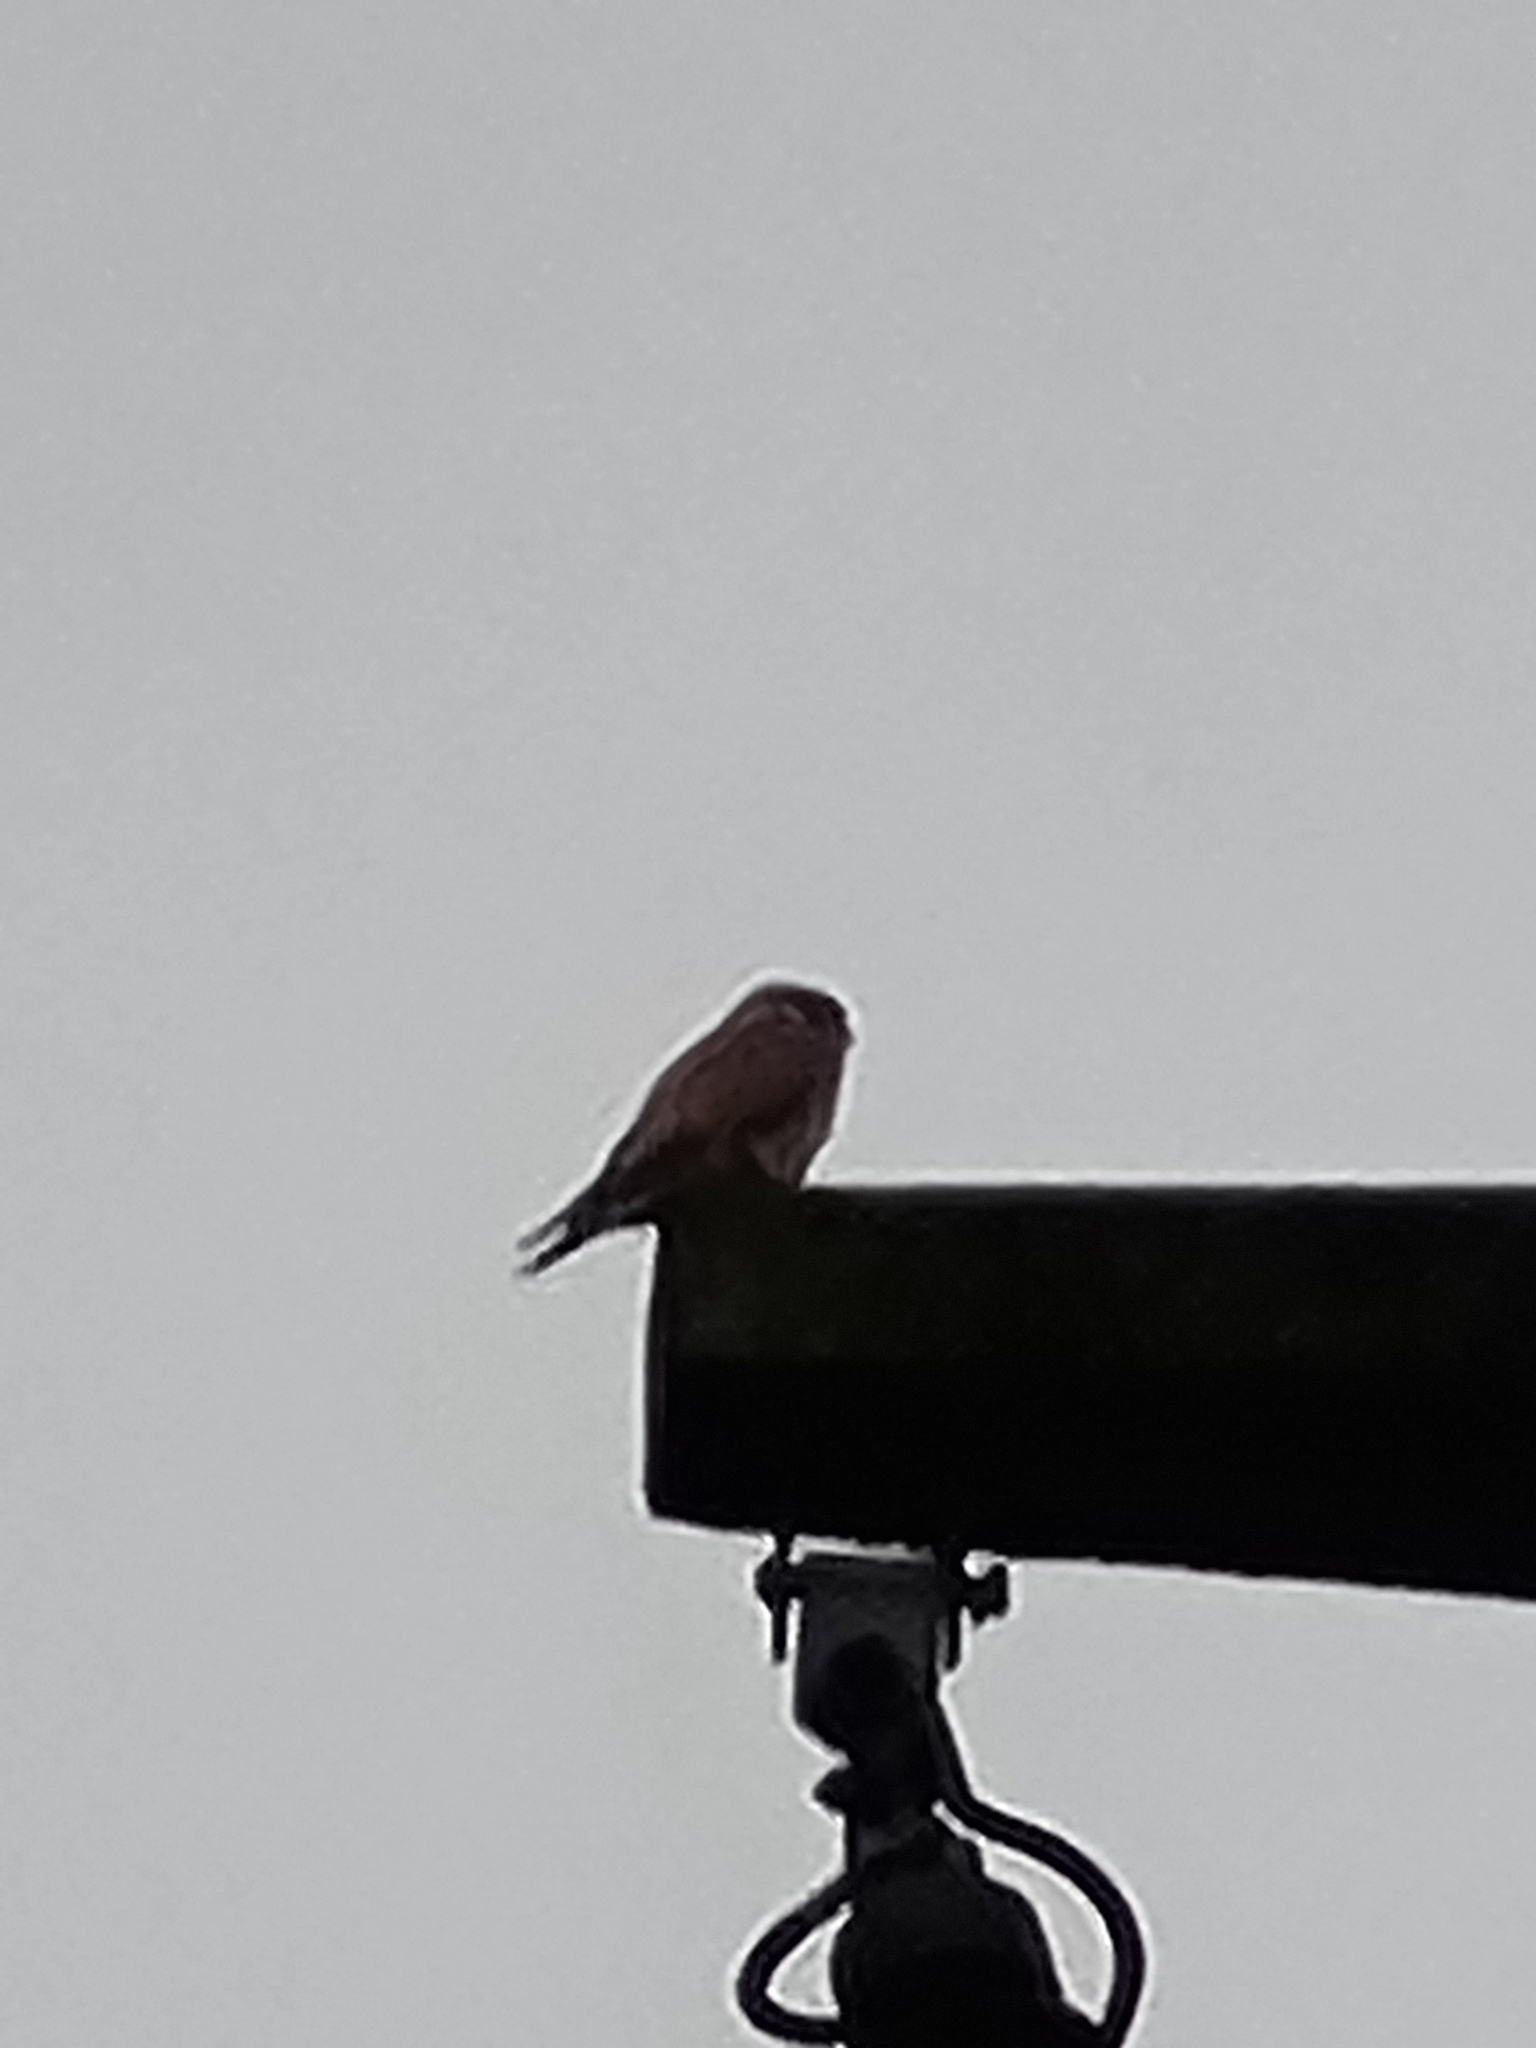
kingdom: Animalia
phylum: Chordata
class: Aves
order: Falconiformes
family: Falconidae
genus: Falco
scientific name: Falco tinnunculus
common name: Common kestrel
